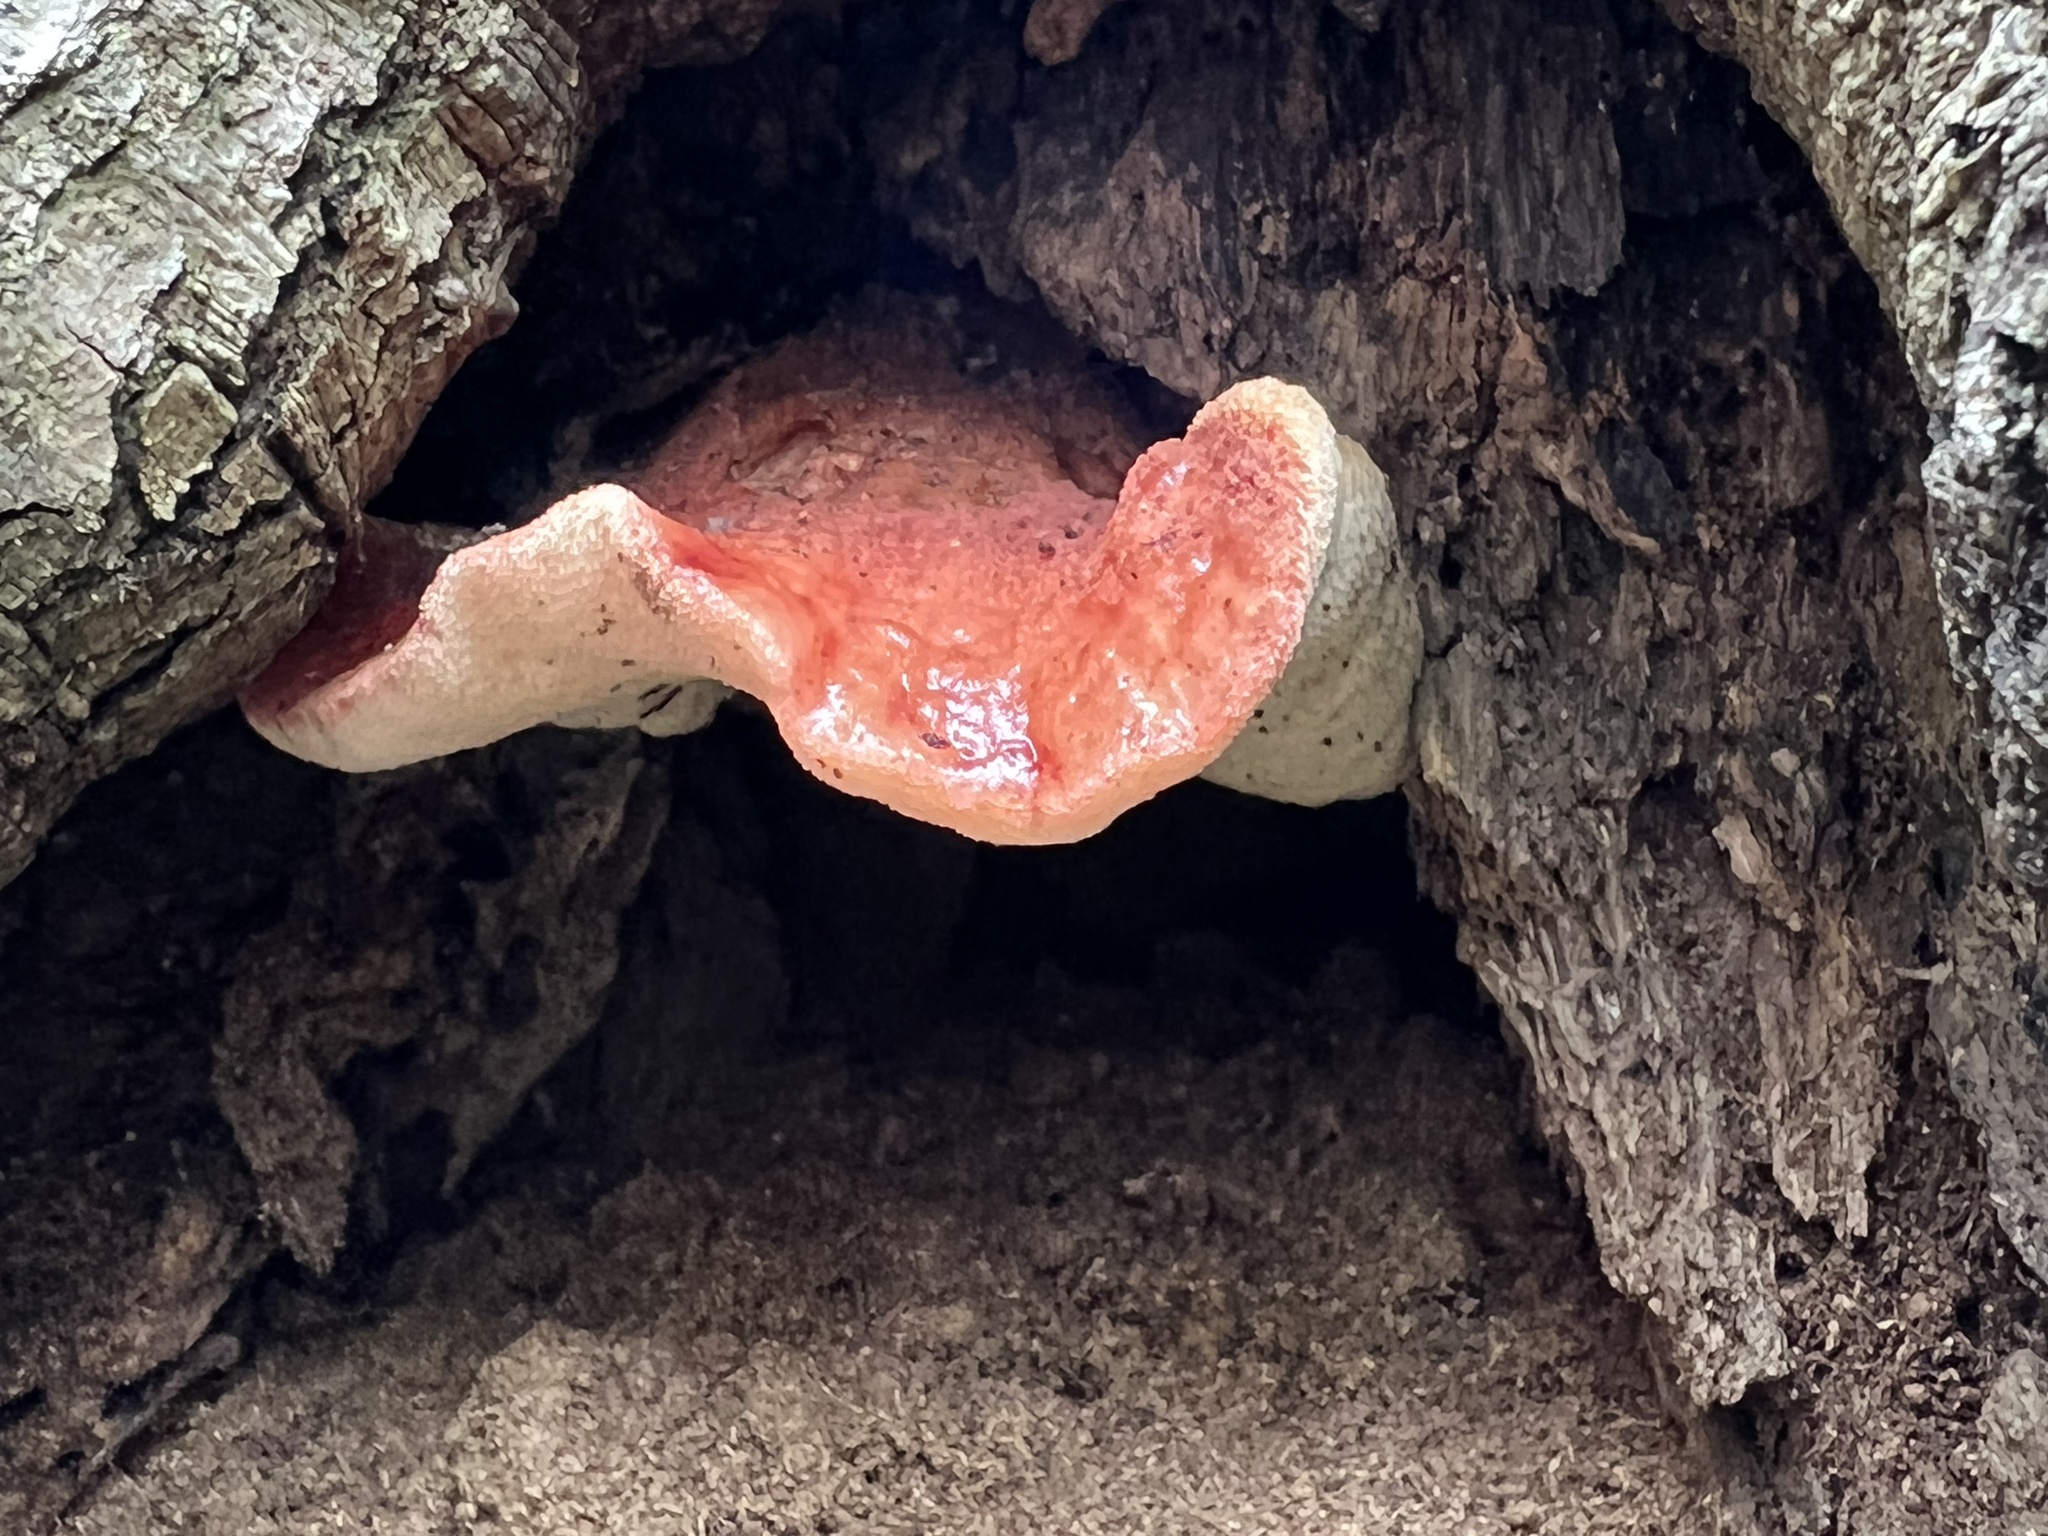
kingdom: Fungi
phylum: Basidiomycota
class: Agaricomycetes
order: Agaricales
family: Fistulinaceae
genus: Fistulina
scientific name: Fistulina hepatica
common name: Beef-steak fungus
